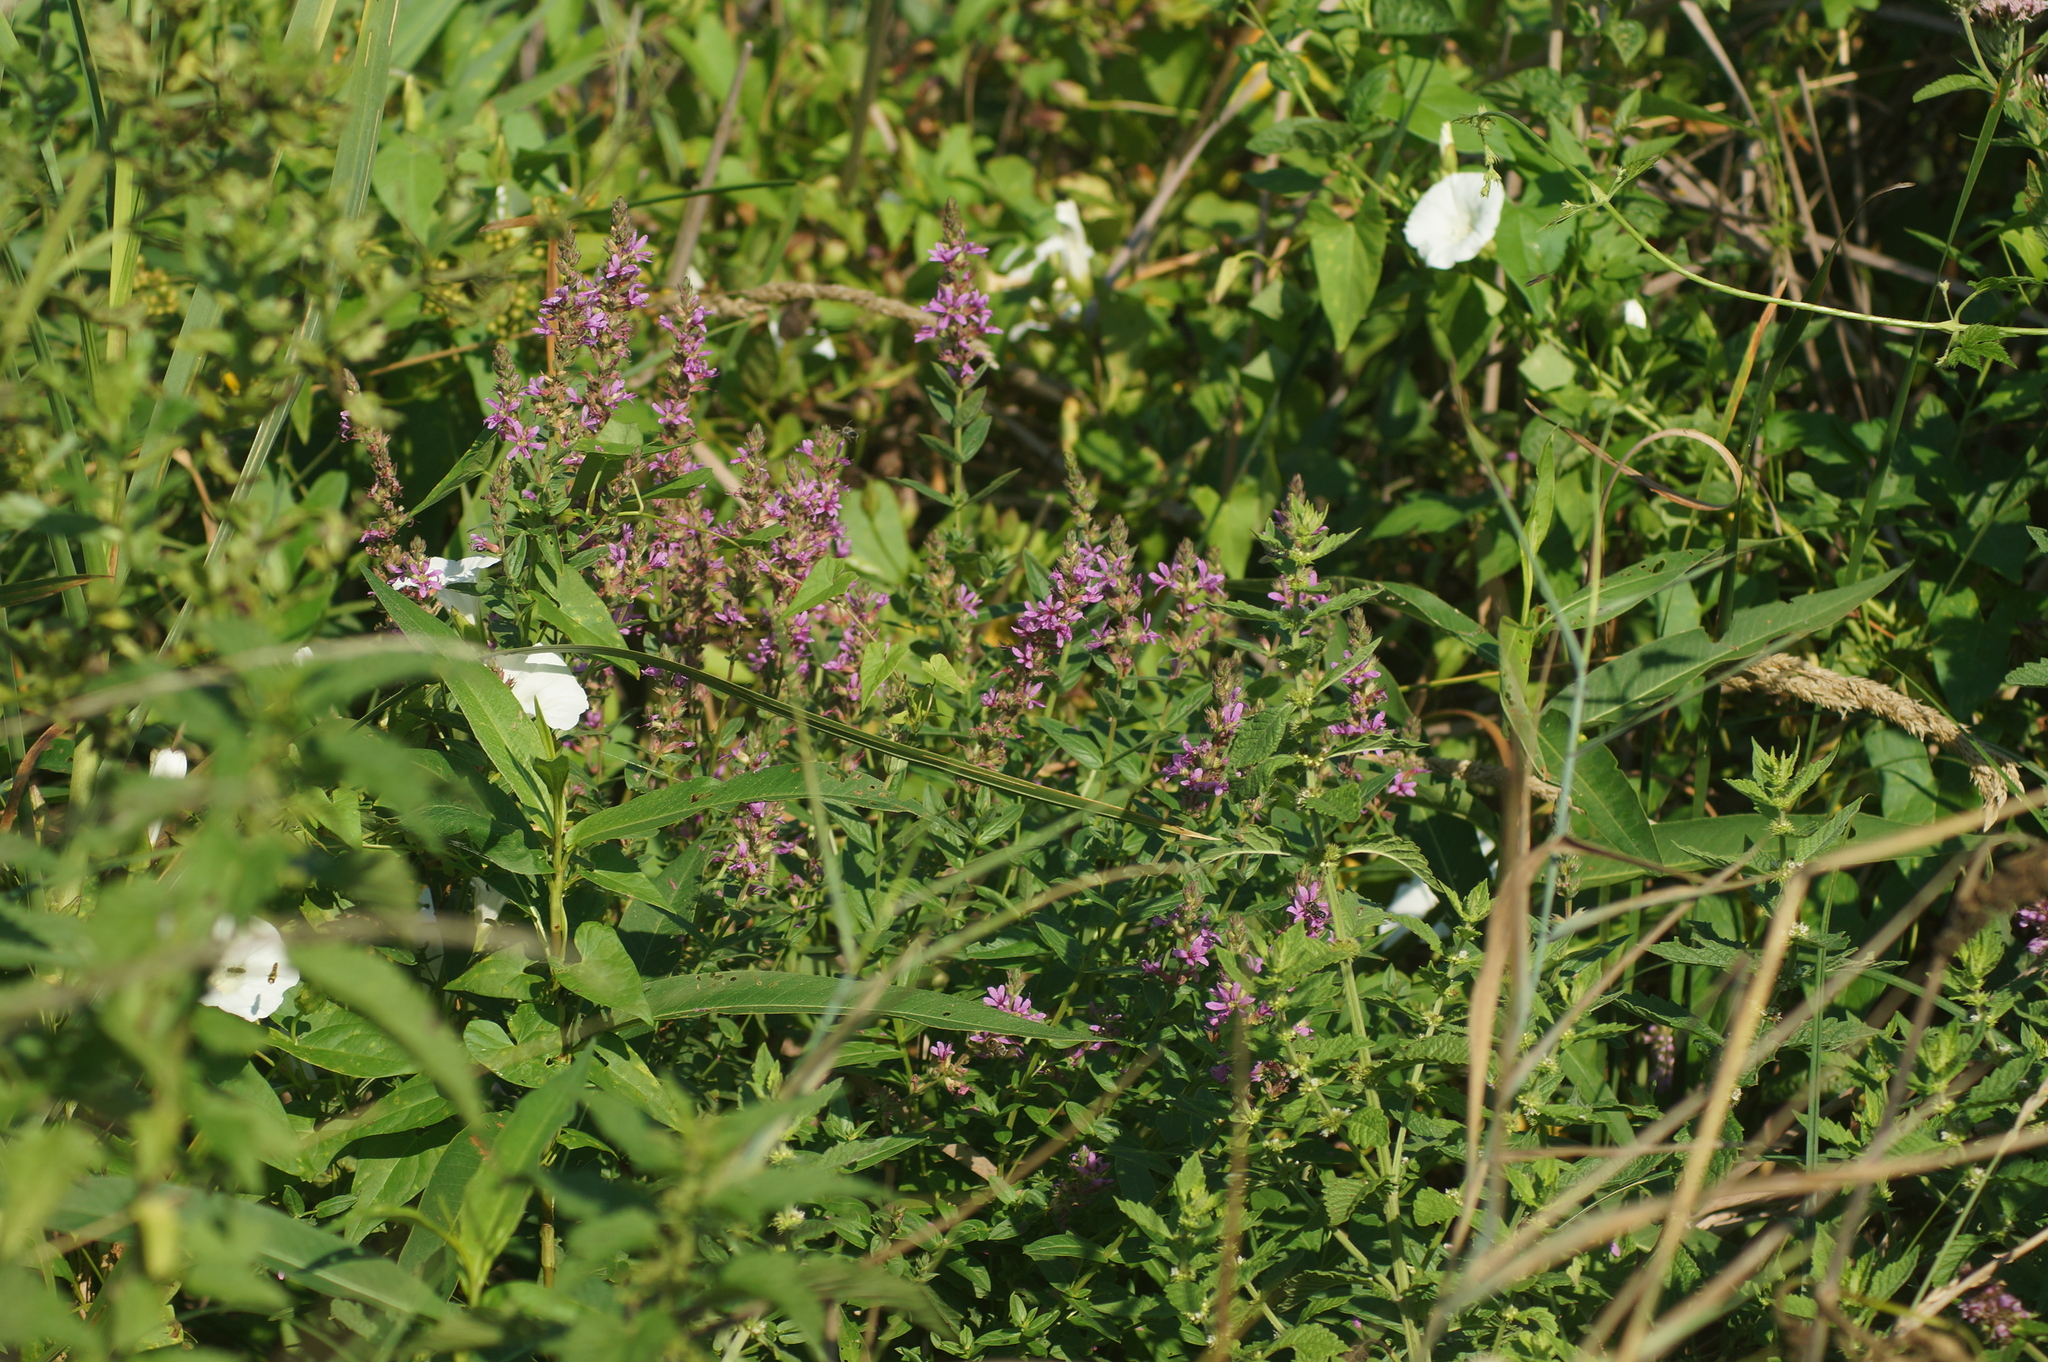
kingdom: Plantae
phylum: Tracheophyta
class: Magnoliopsida
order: Myrtales
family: Lythraceae
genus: Lythrum
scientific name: Lythrum salicaria
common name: Purple loosestrife
